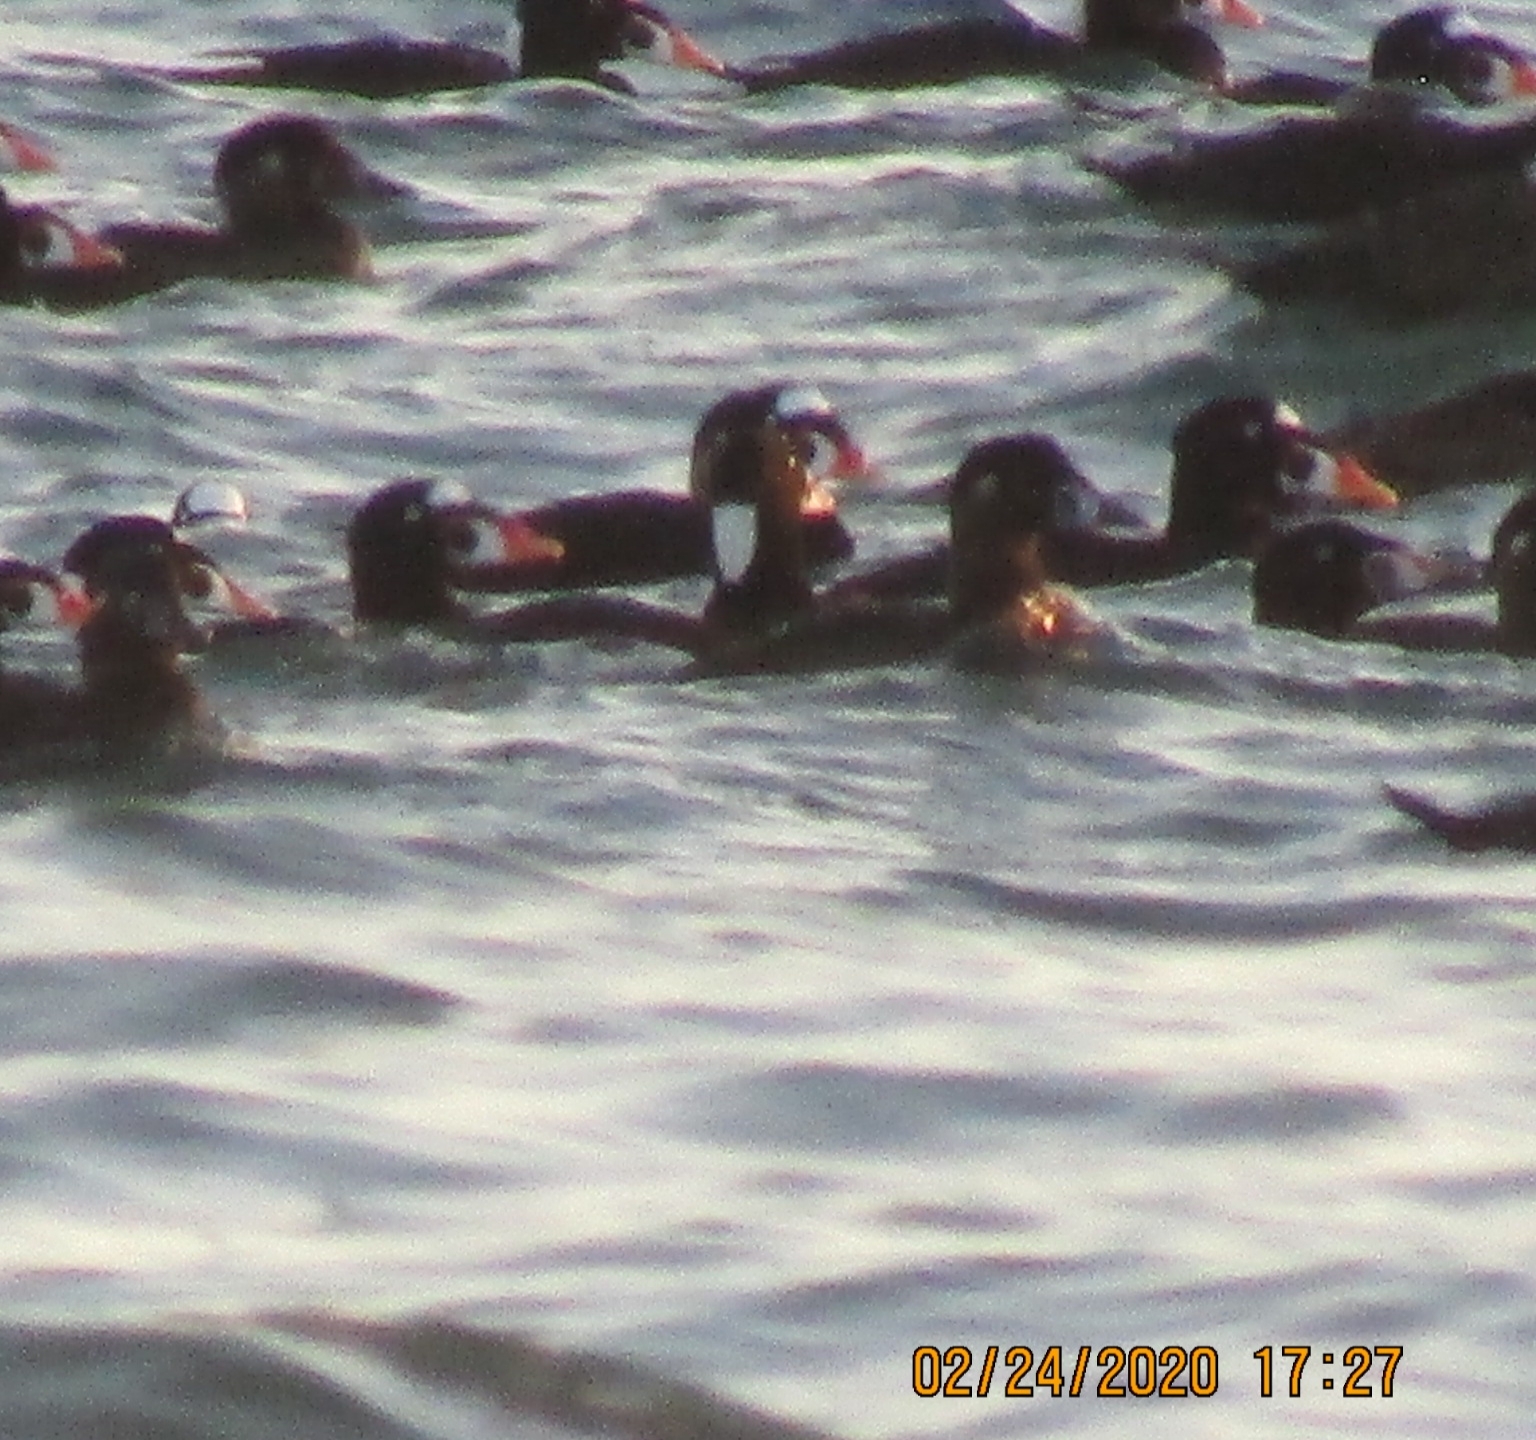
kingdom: Animalia
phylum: Chordata
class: Aves
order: Anseriformes
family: Anatidae
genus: Melanitta
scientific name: Melanitta perspicillata
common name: Surf scoter
